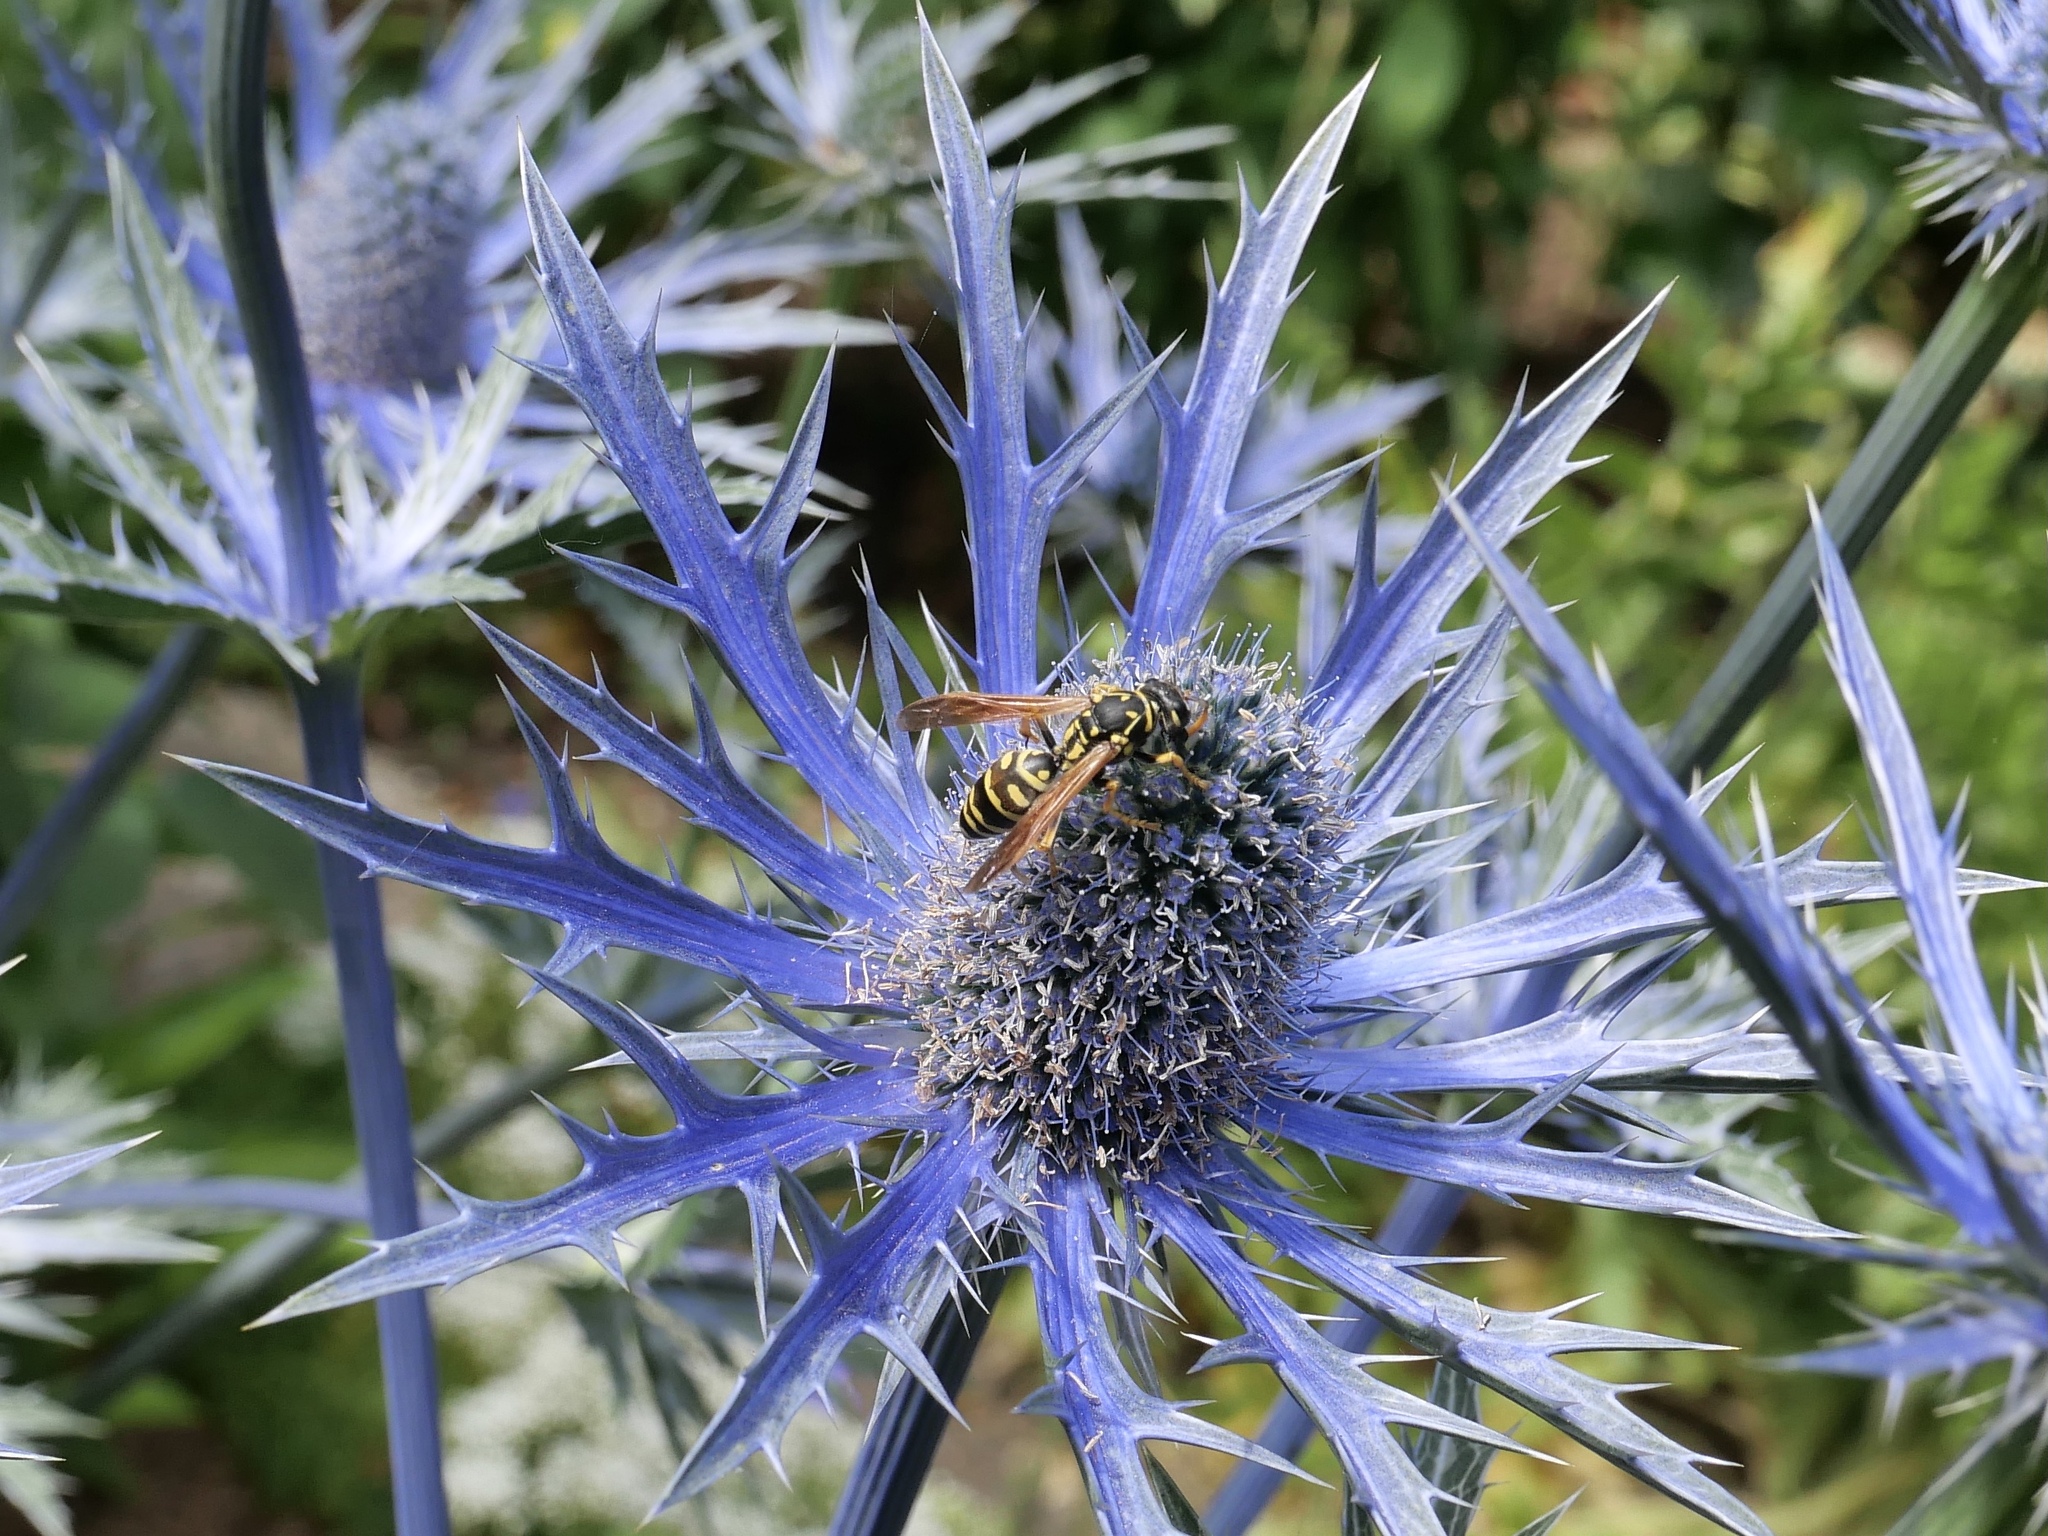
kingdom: Animalia
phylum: Arthropoda
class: Insecta
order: Hymenoptera
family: Eumenidae
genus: Polistes
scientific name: Polistes dominula
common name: Paper wasp
